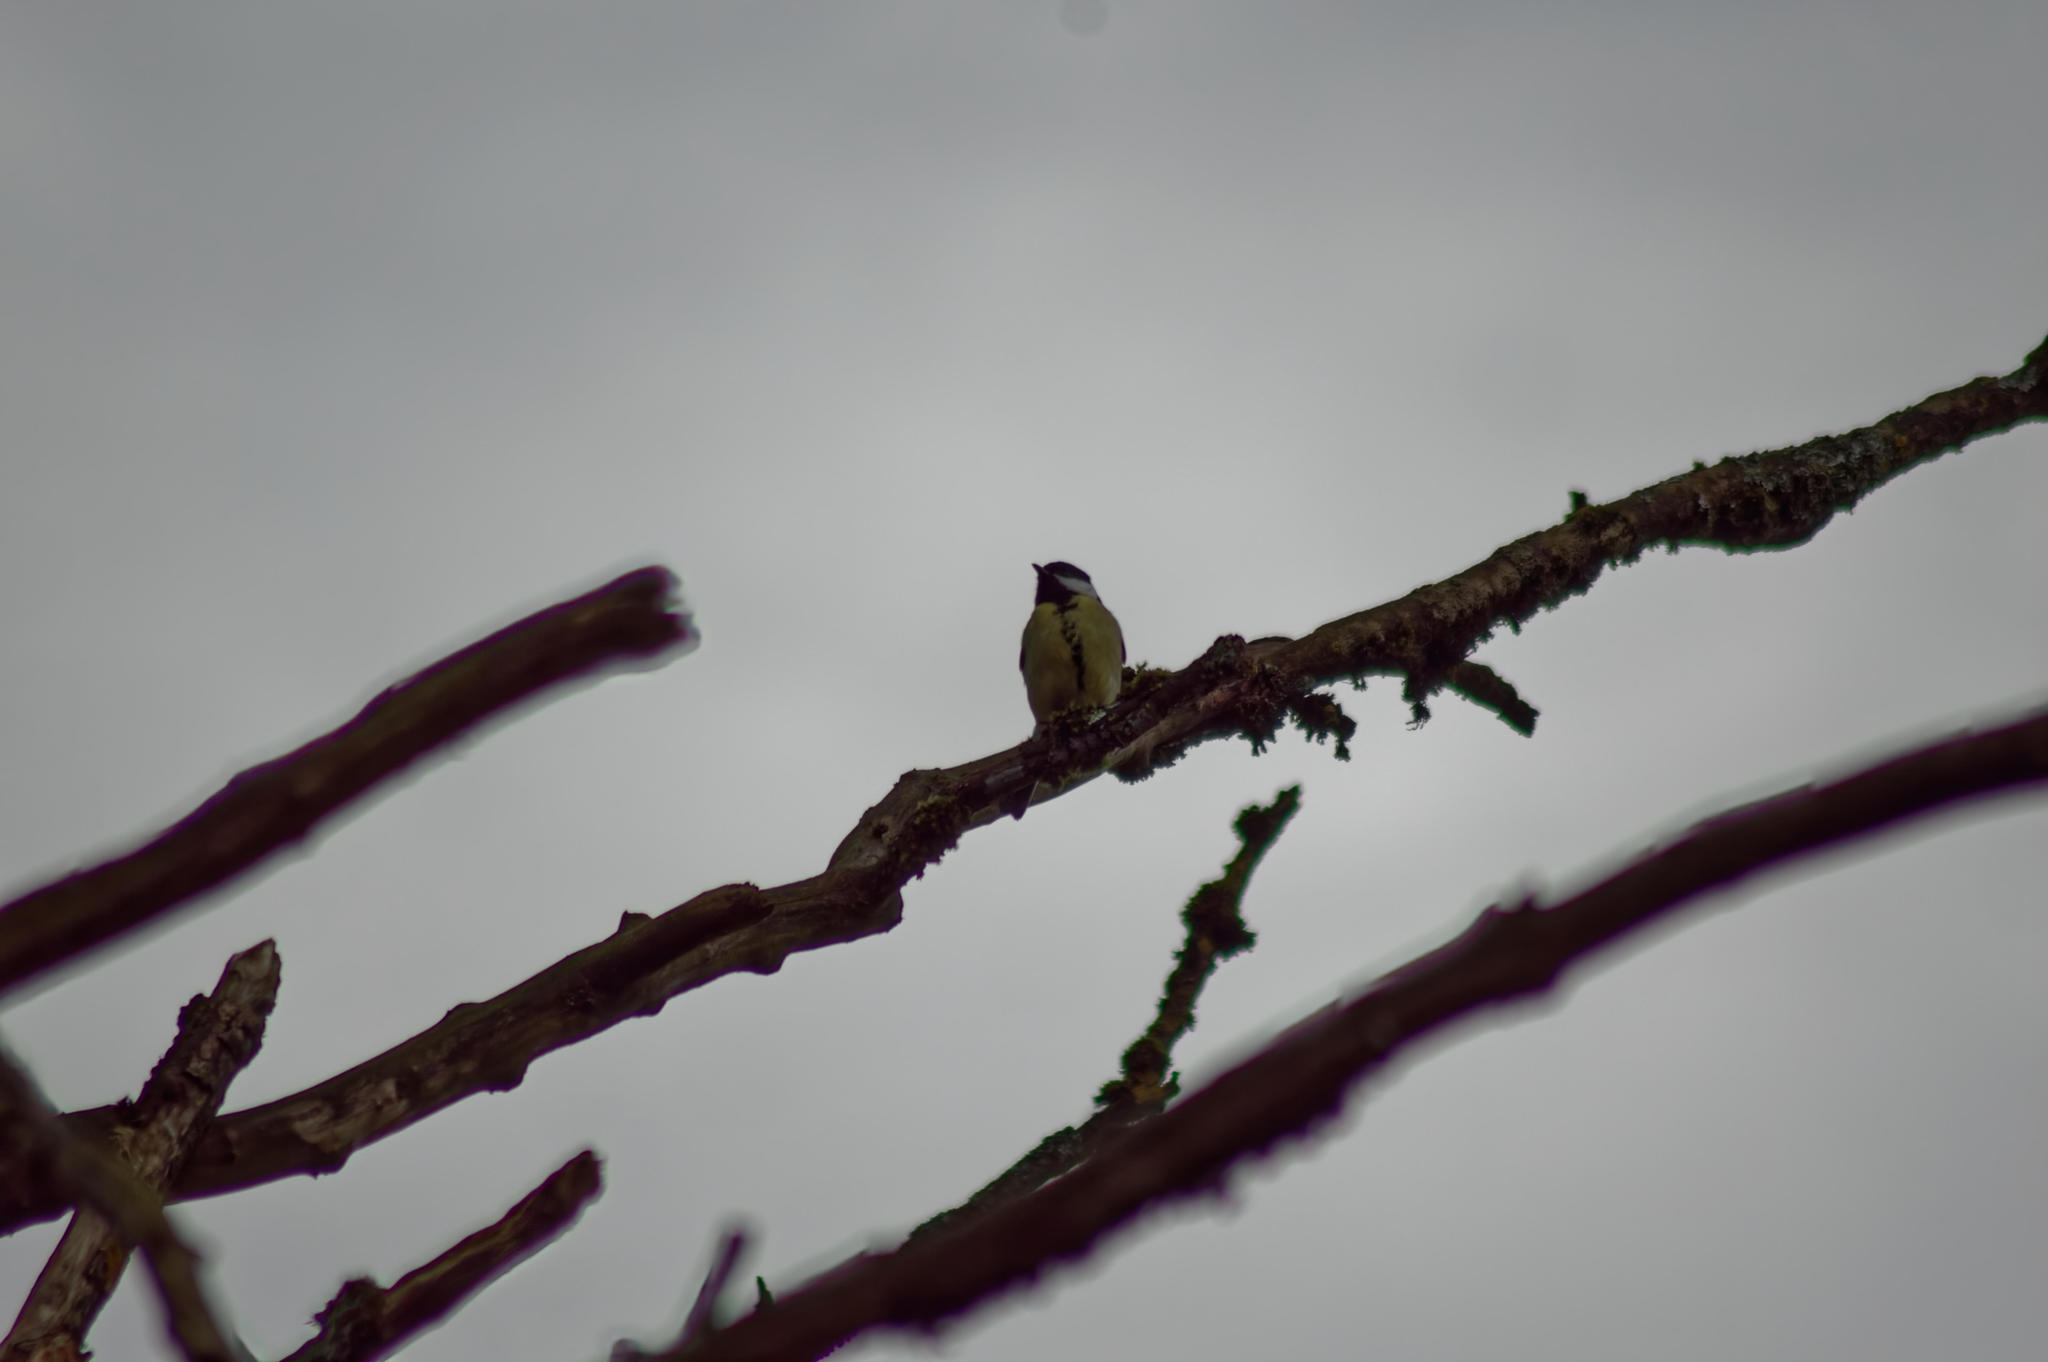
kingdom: Animalia
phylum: Chordata
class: Aves
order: Passeriformes
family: Paridae
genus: Parus
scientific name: Parus major
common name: Great tit
